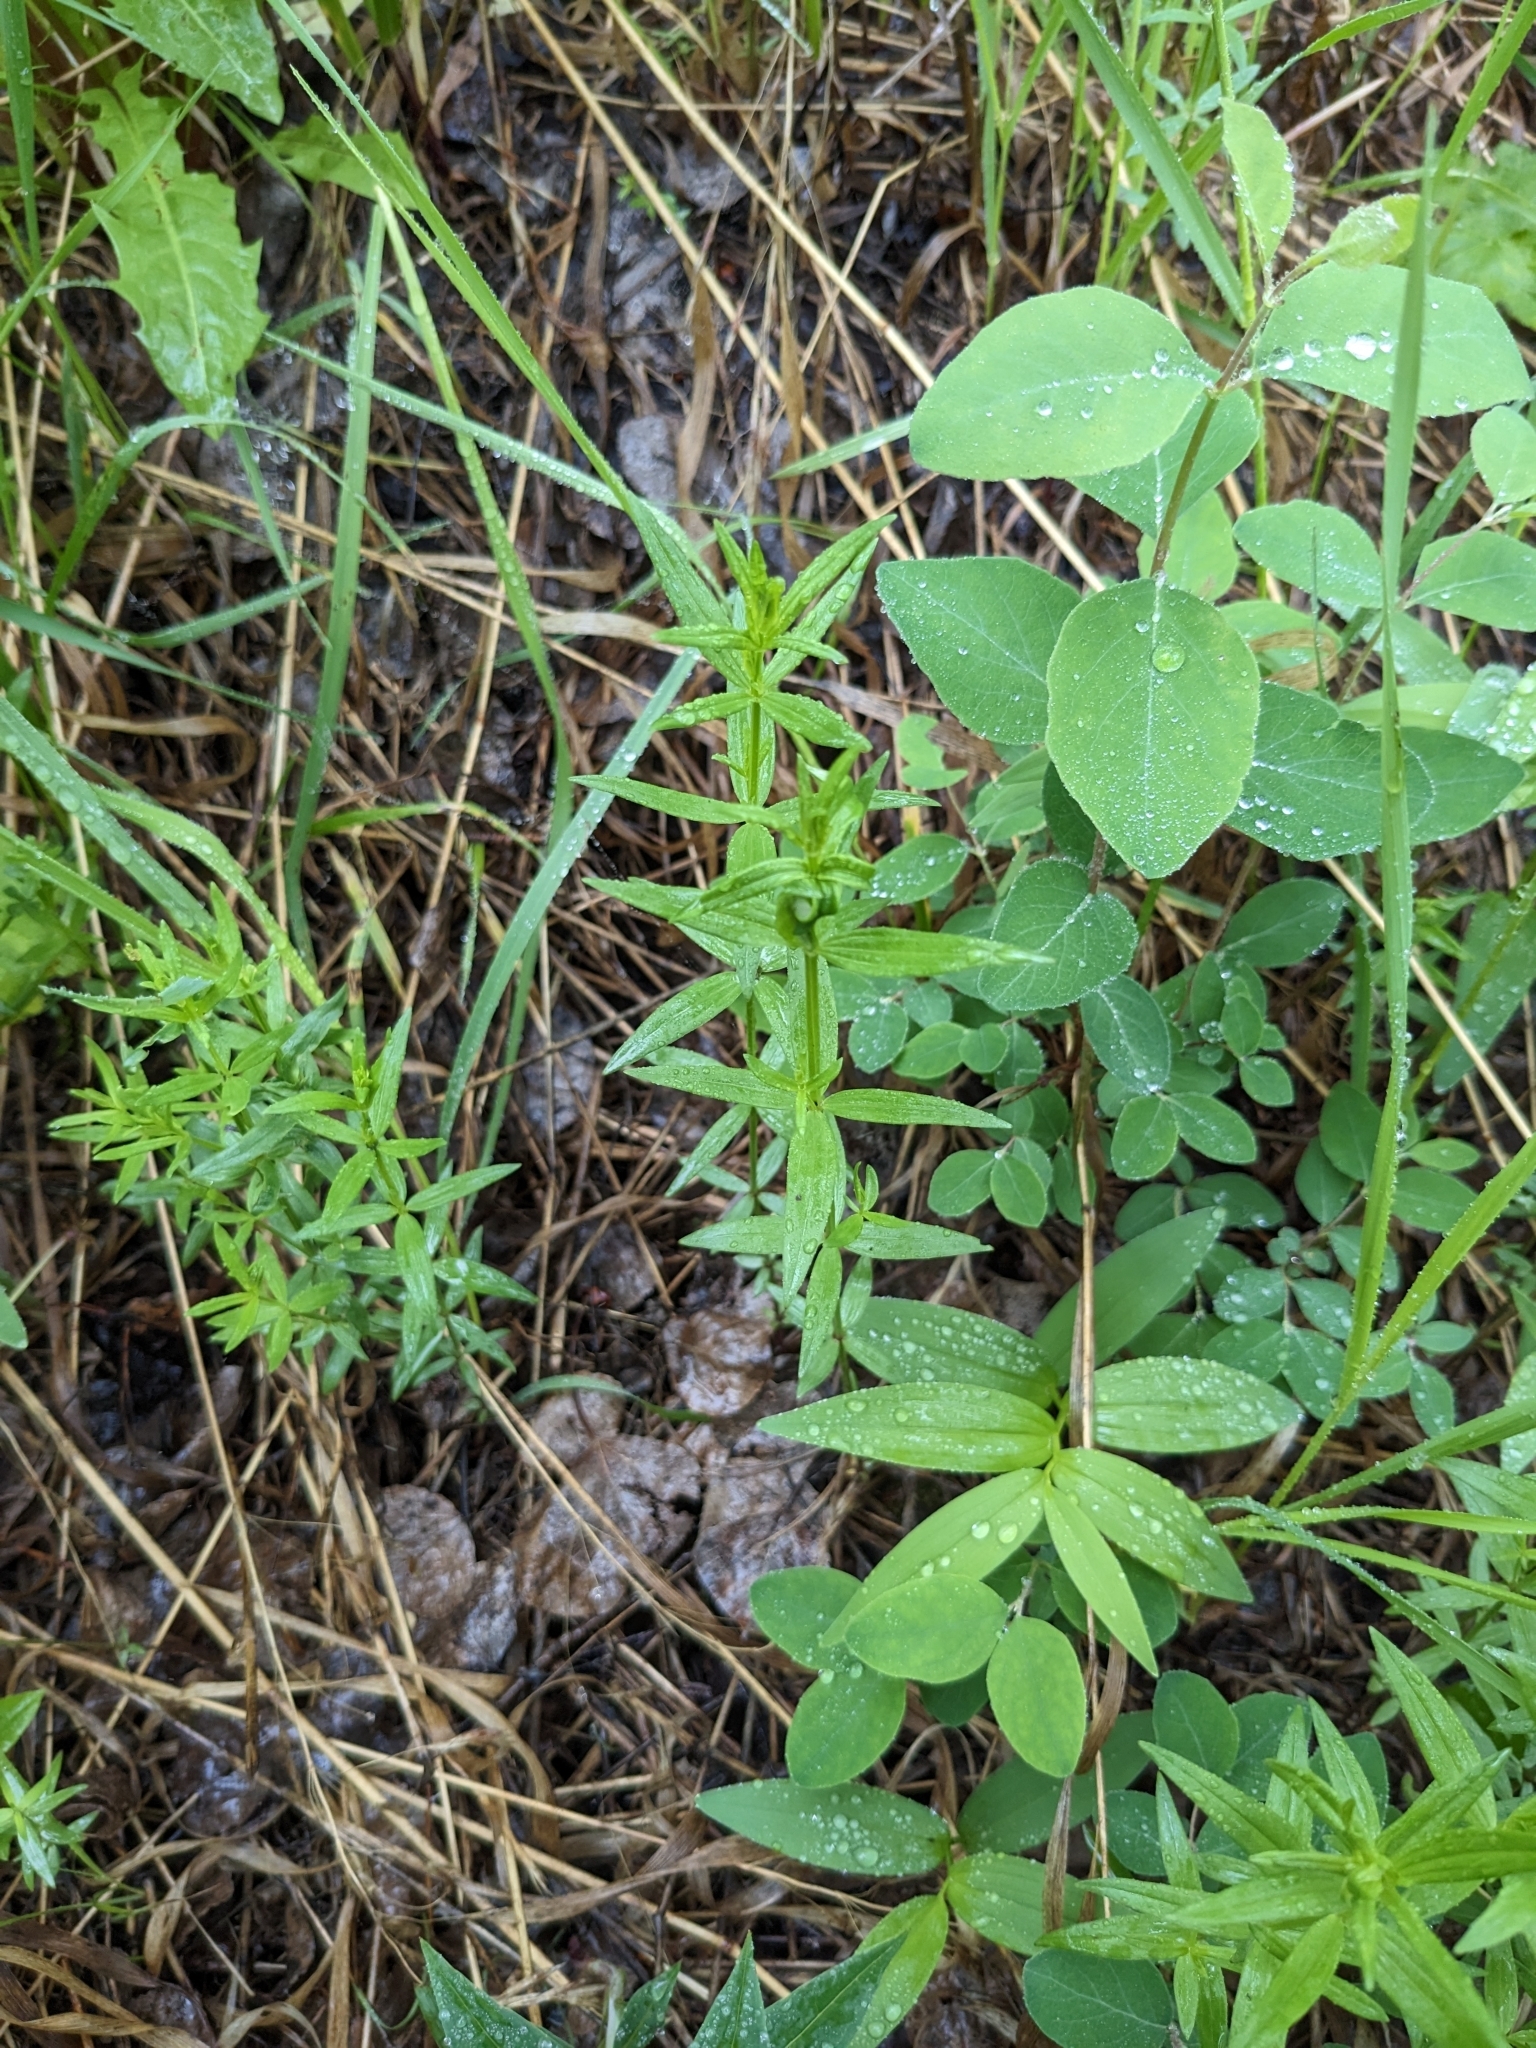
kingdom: Plantae
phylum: Tracheophyta
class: Magnoliopsida
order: Gentianales
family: Rubiaceae
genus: Galium
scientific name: Galium boreale
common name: Northern bedstraw
